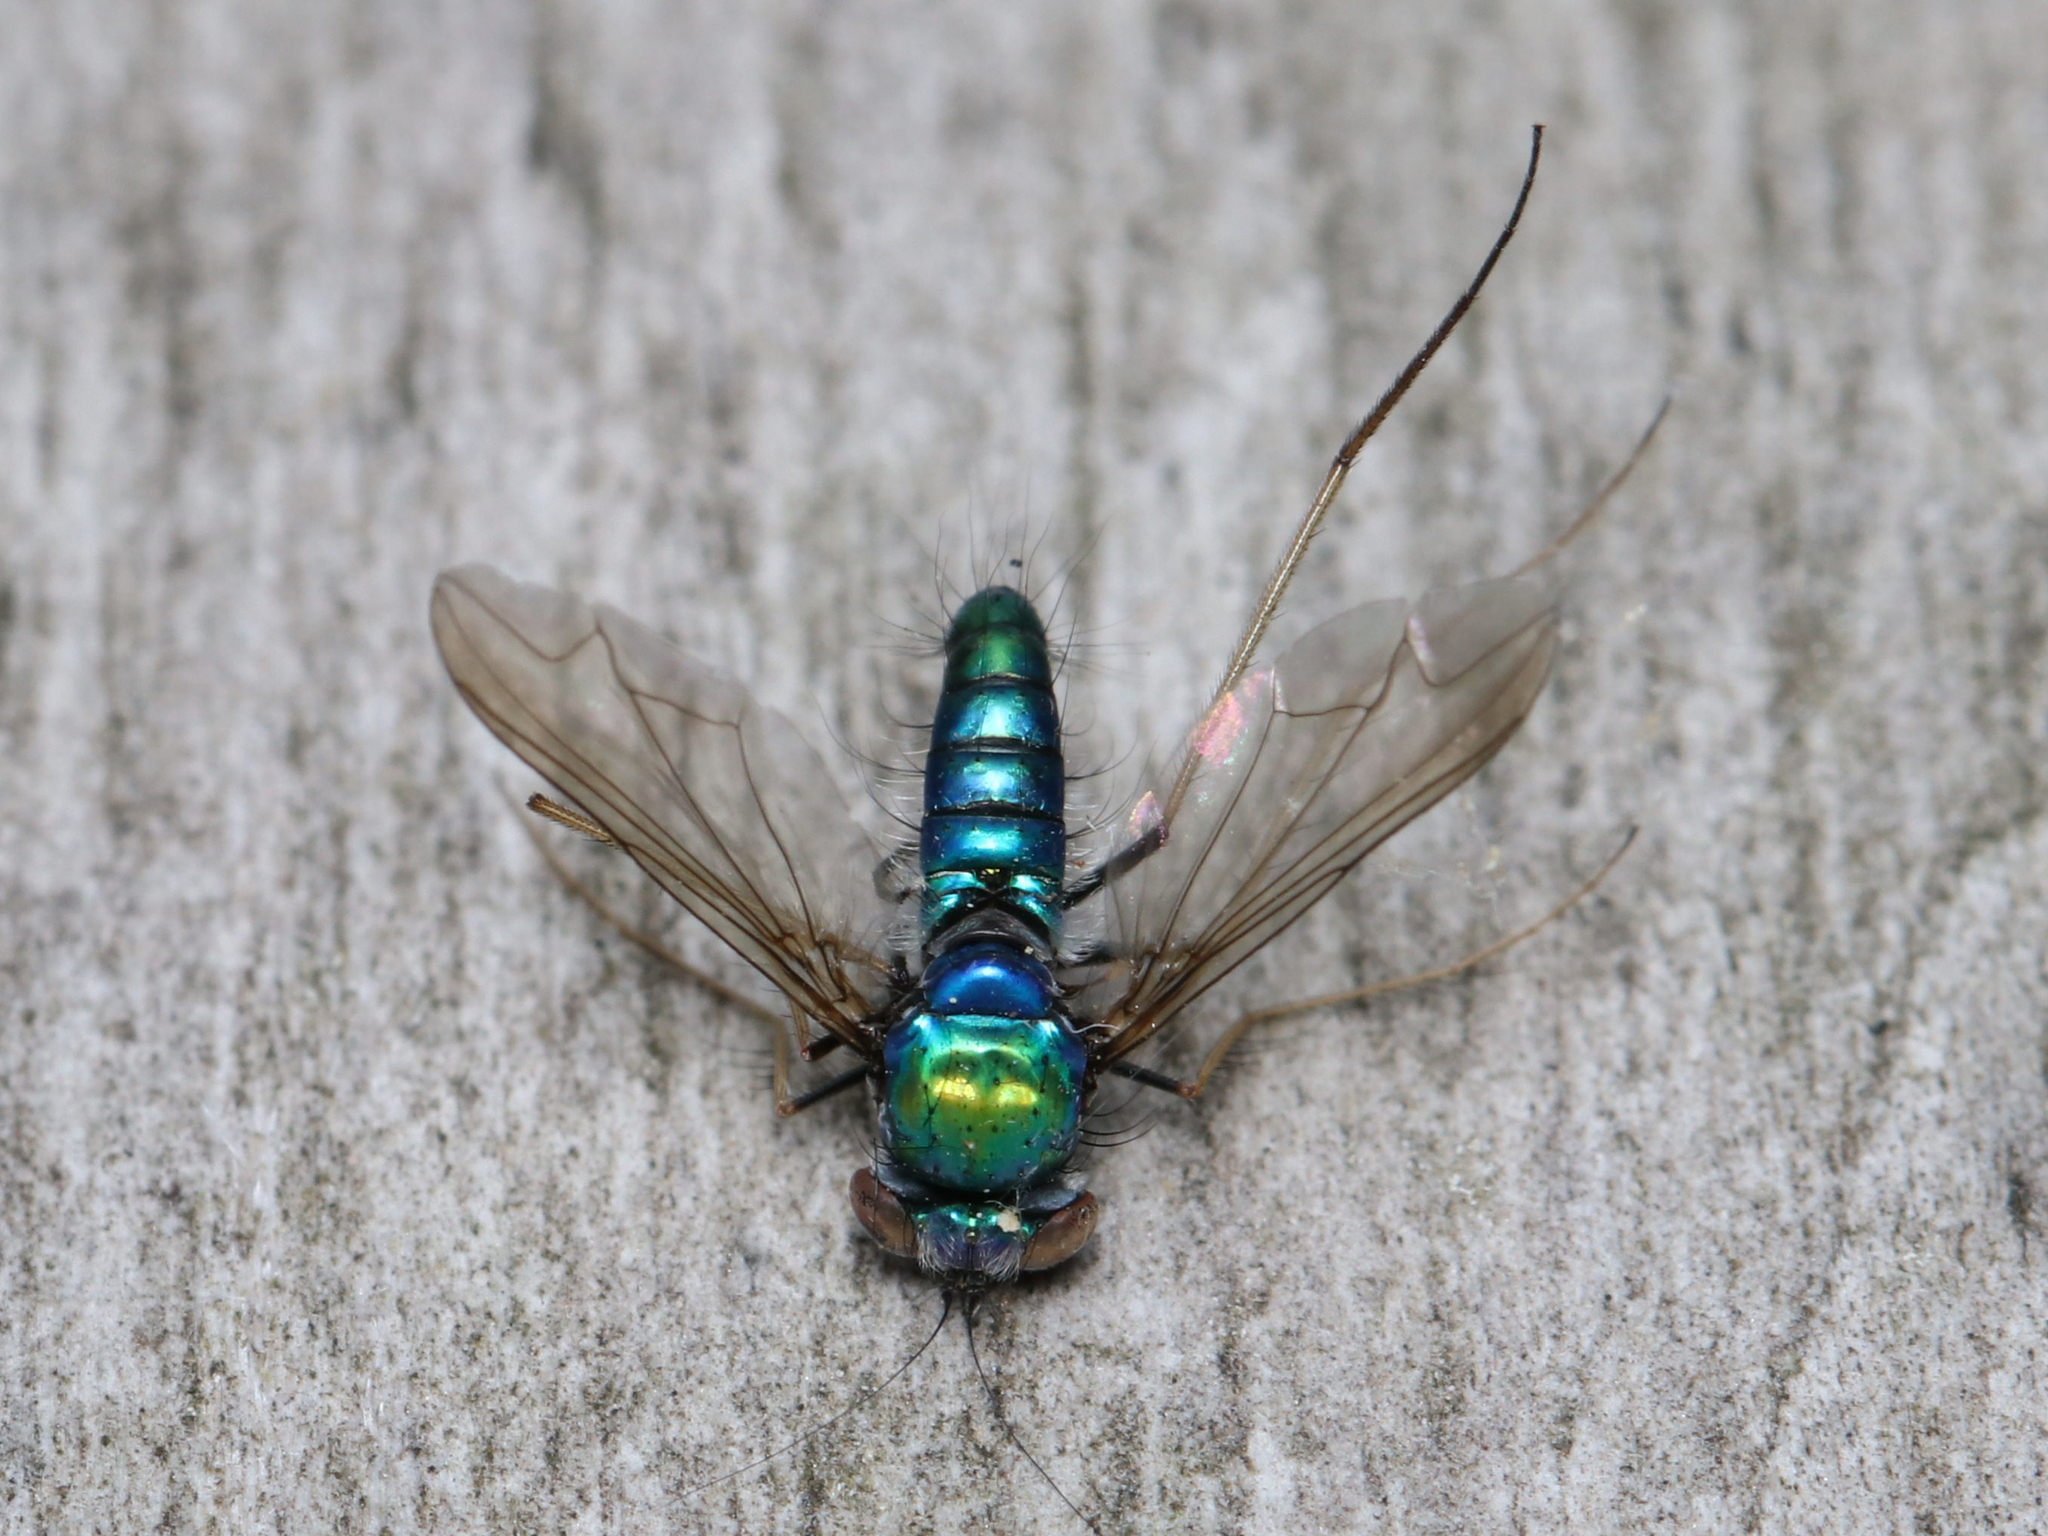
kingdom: Animalia
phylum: Arthropoda
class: Insecta
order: Diptera
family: Dolichopodidae
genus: Condylostylus
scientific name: Condylostylus comatus
